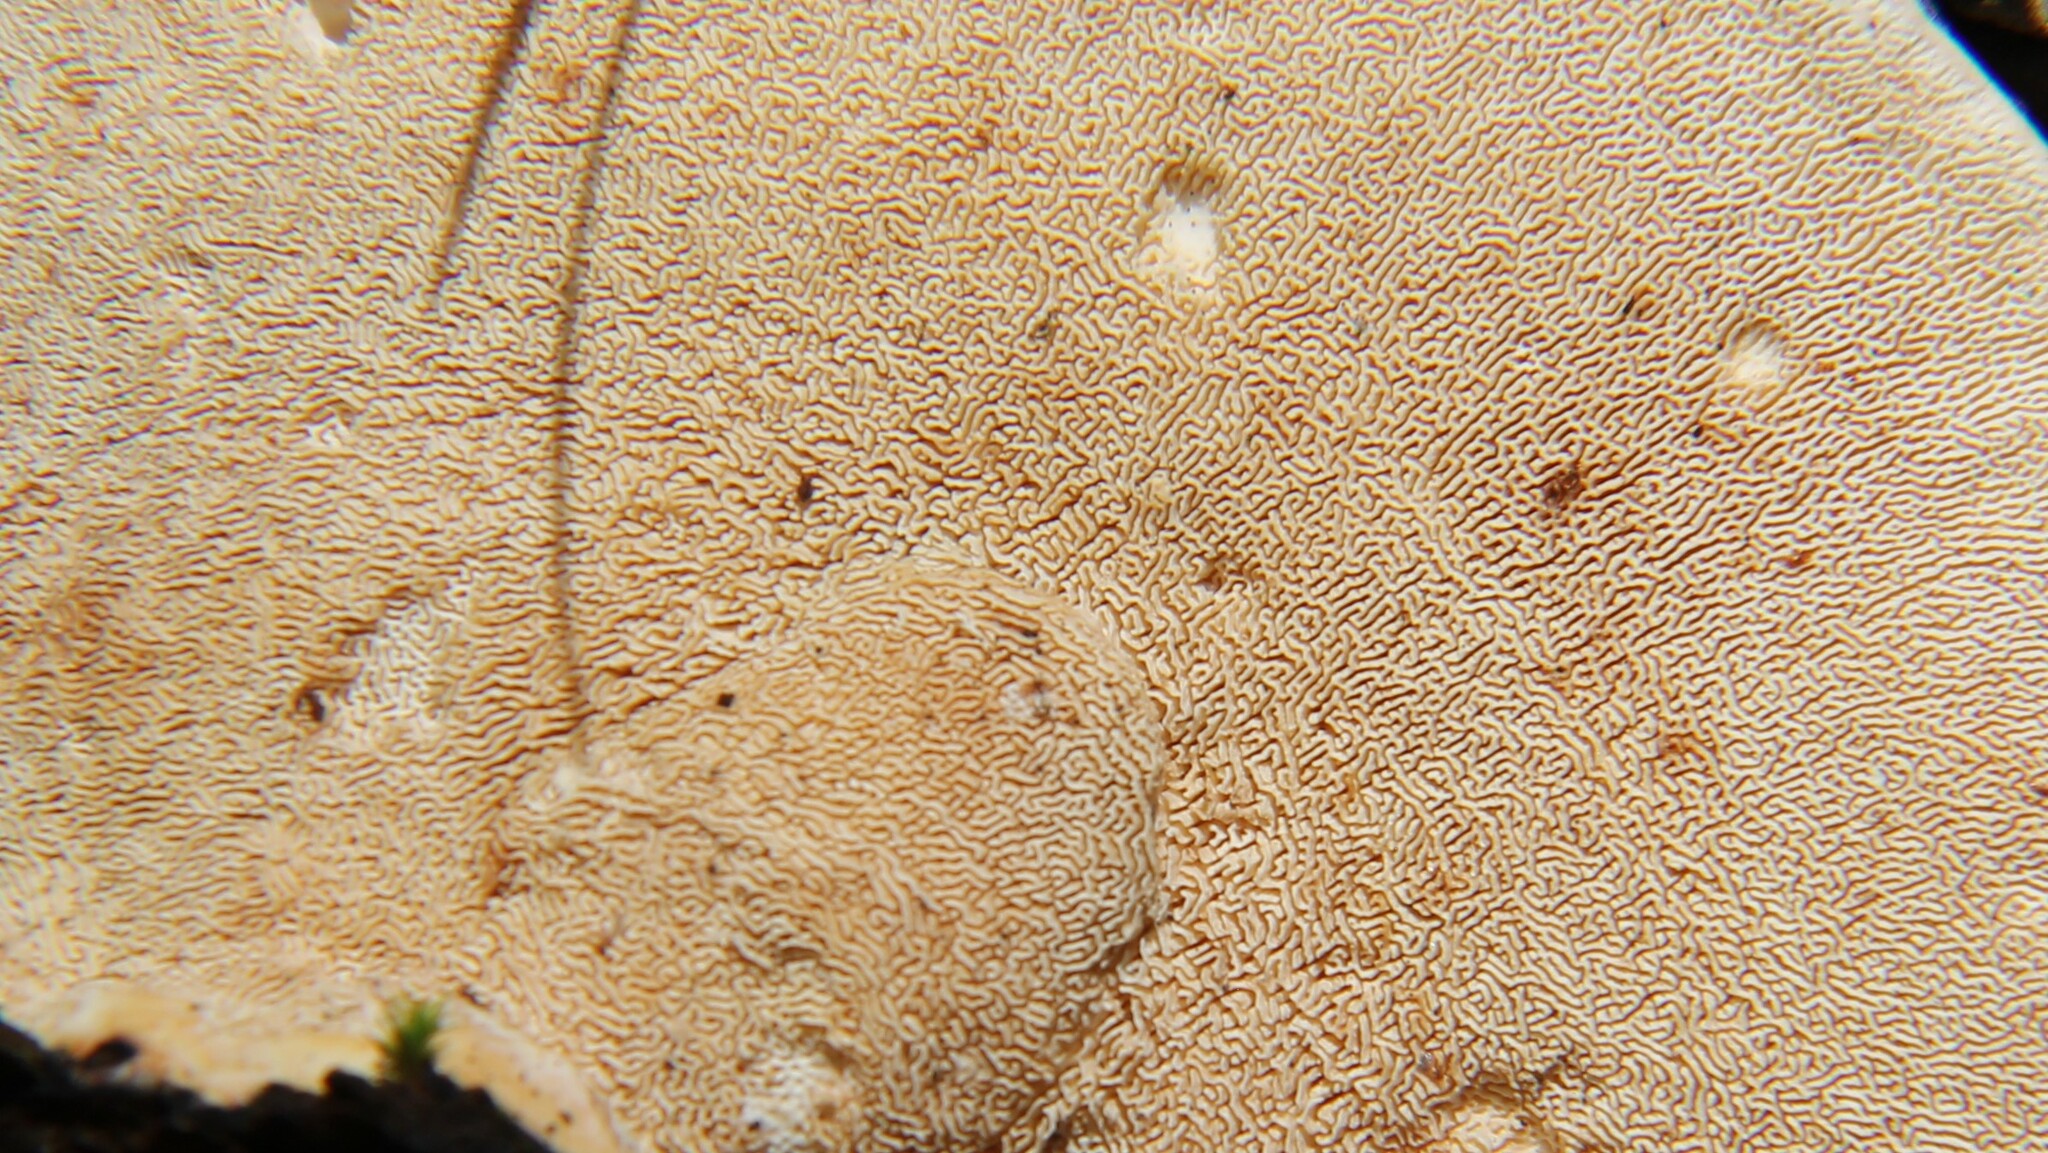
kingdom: Fungi
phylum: Basidiomycota
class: Agaricomycetes
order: Polyporales
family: Polyporaceae
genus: Trametes
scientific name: Trametes
